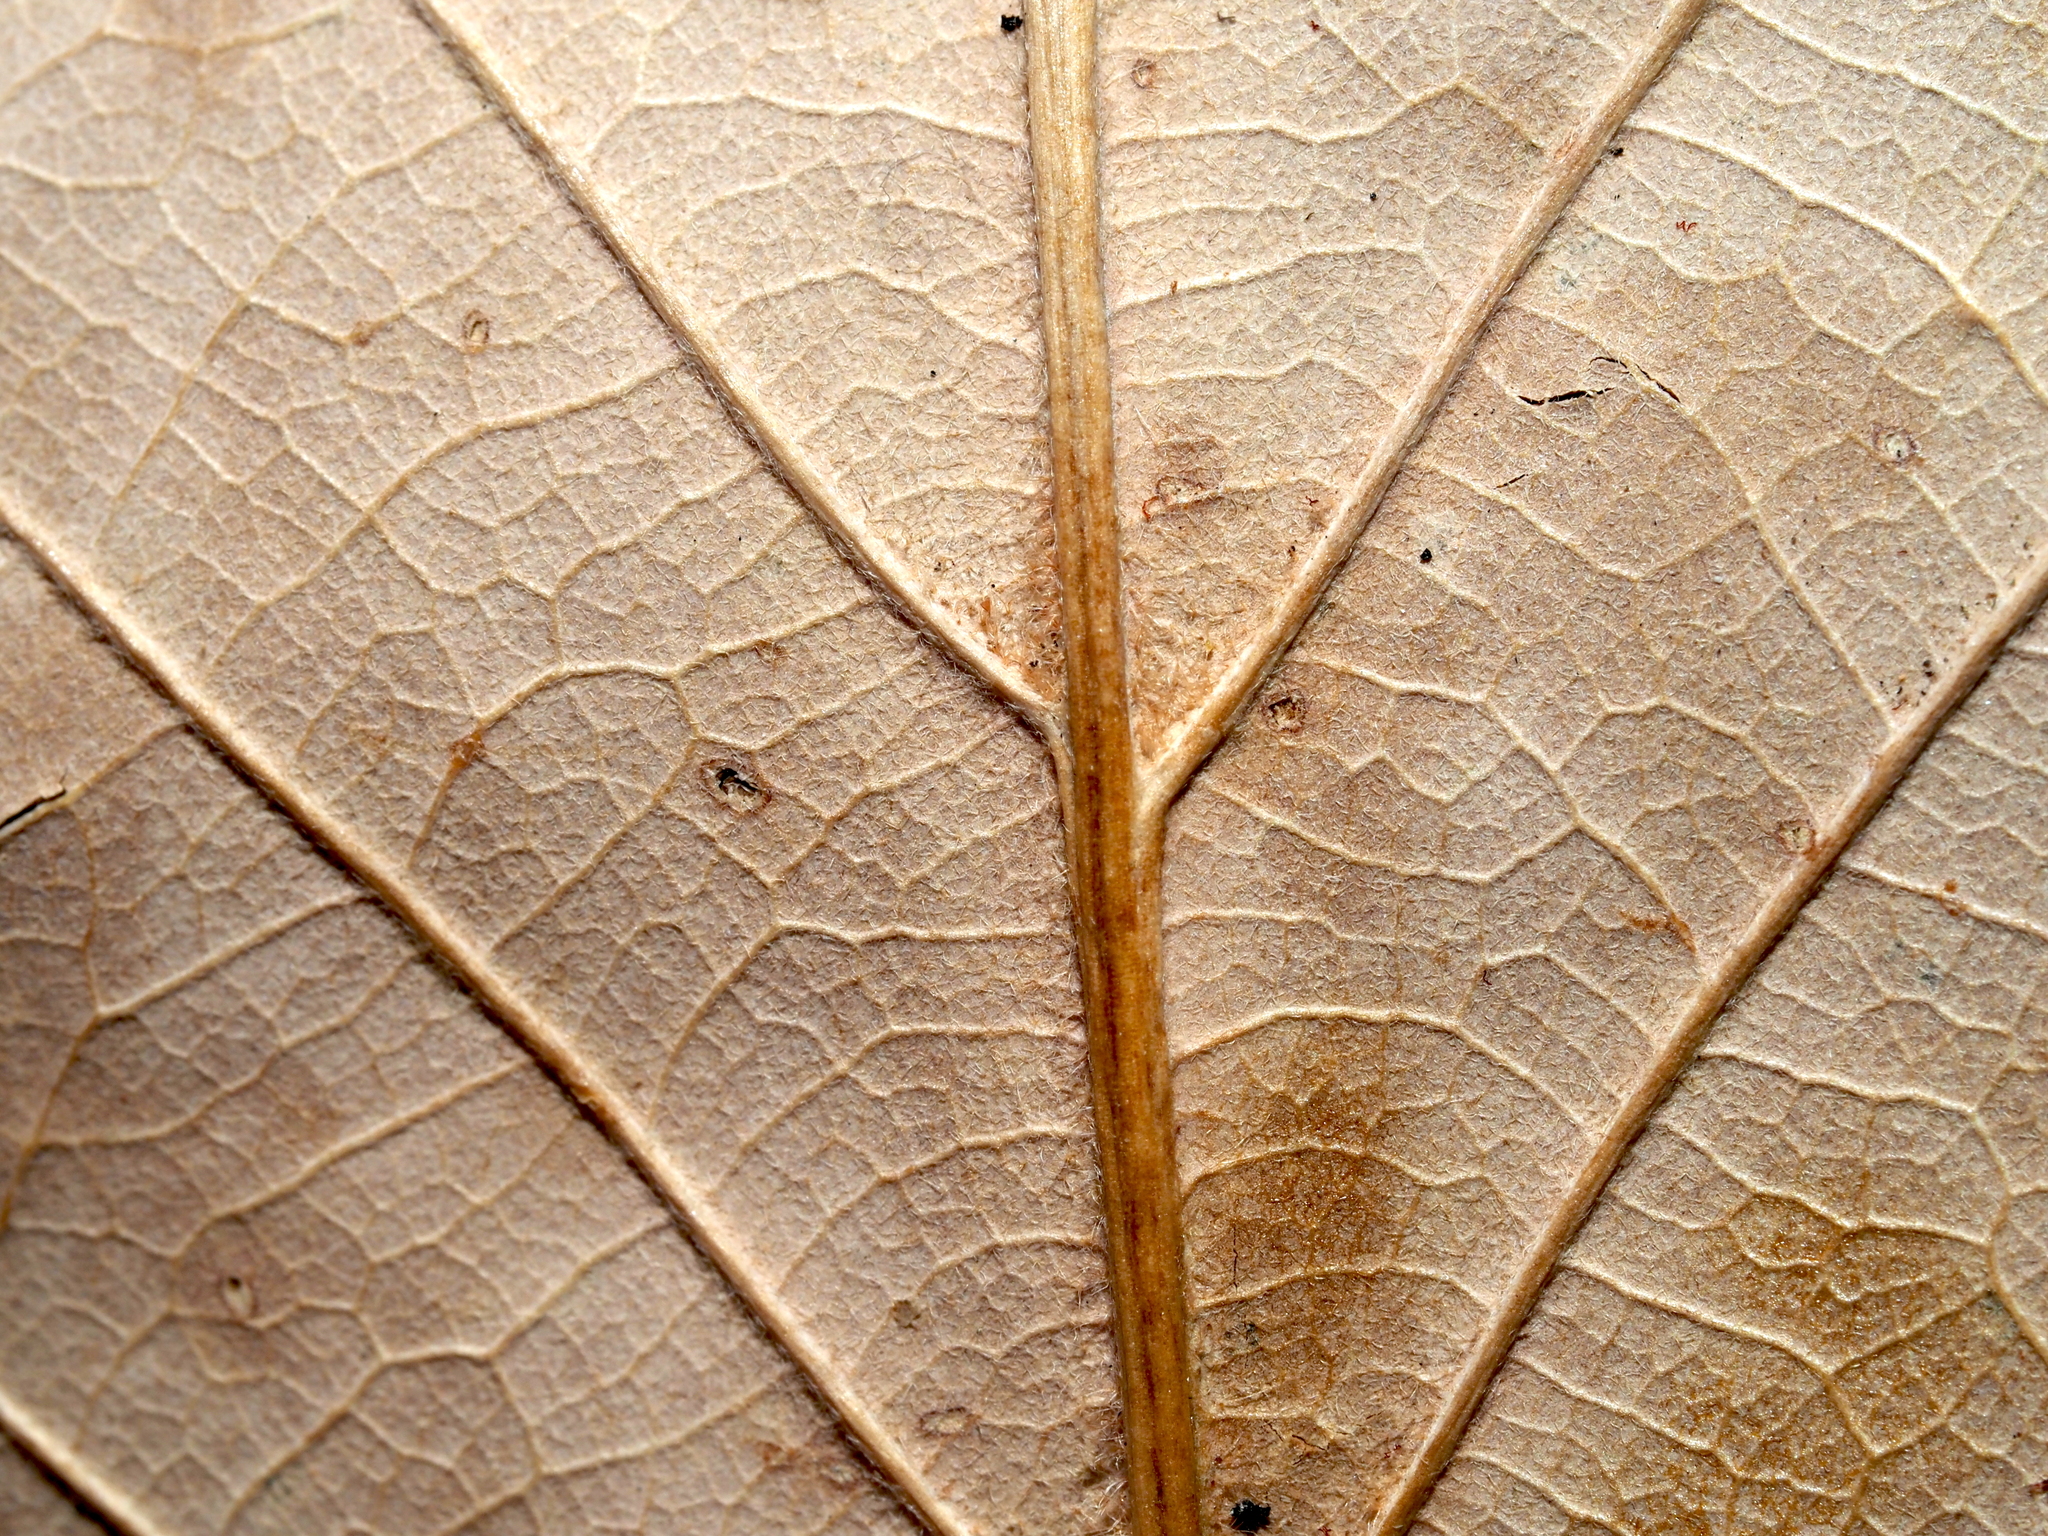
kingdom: Plantae
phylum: Tracheophyta
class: Magnoliopsida
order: Fagales
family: Fagaceae
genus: Quercus
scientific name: Quercus montana
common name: Chestnut oak
